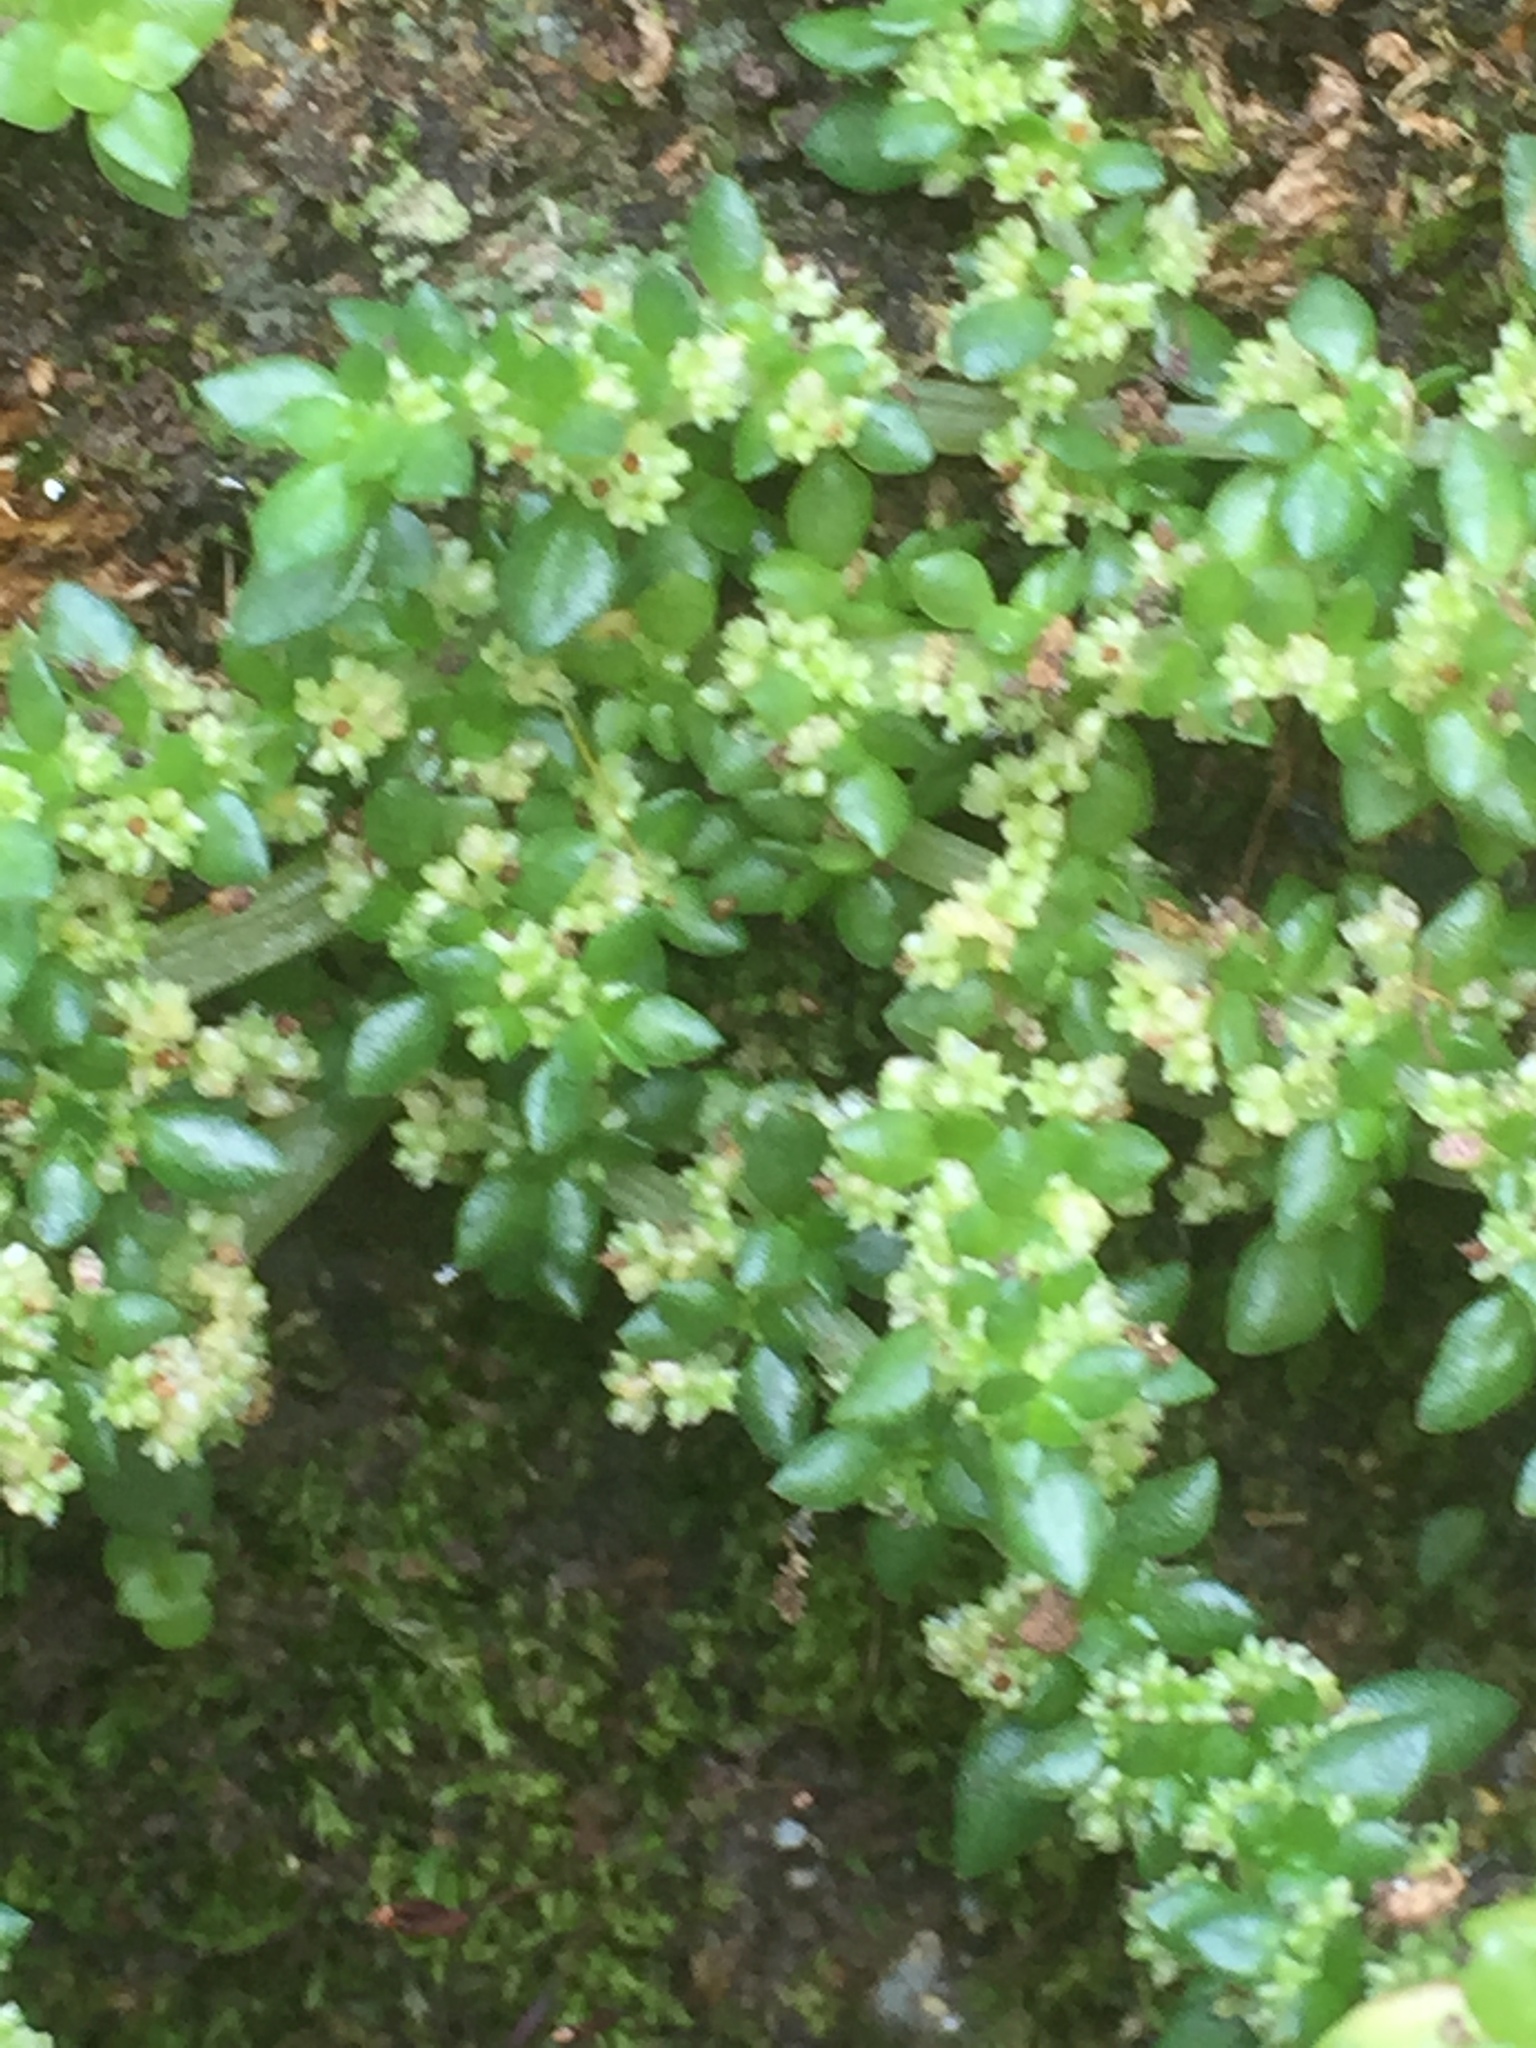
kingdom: Plantae
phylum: Tracheophyta
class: Magnoliopsida
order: Rosales
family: Urticaceae
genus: Pilea
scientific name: Pilea microphylla
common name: Artillery-plant
